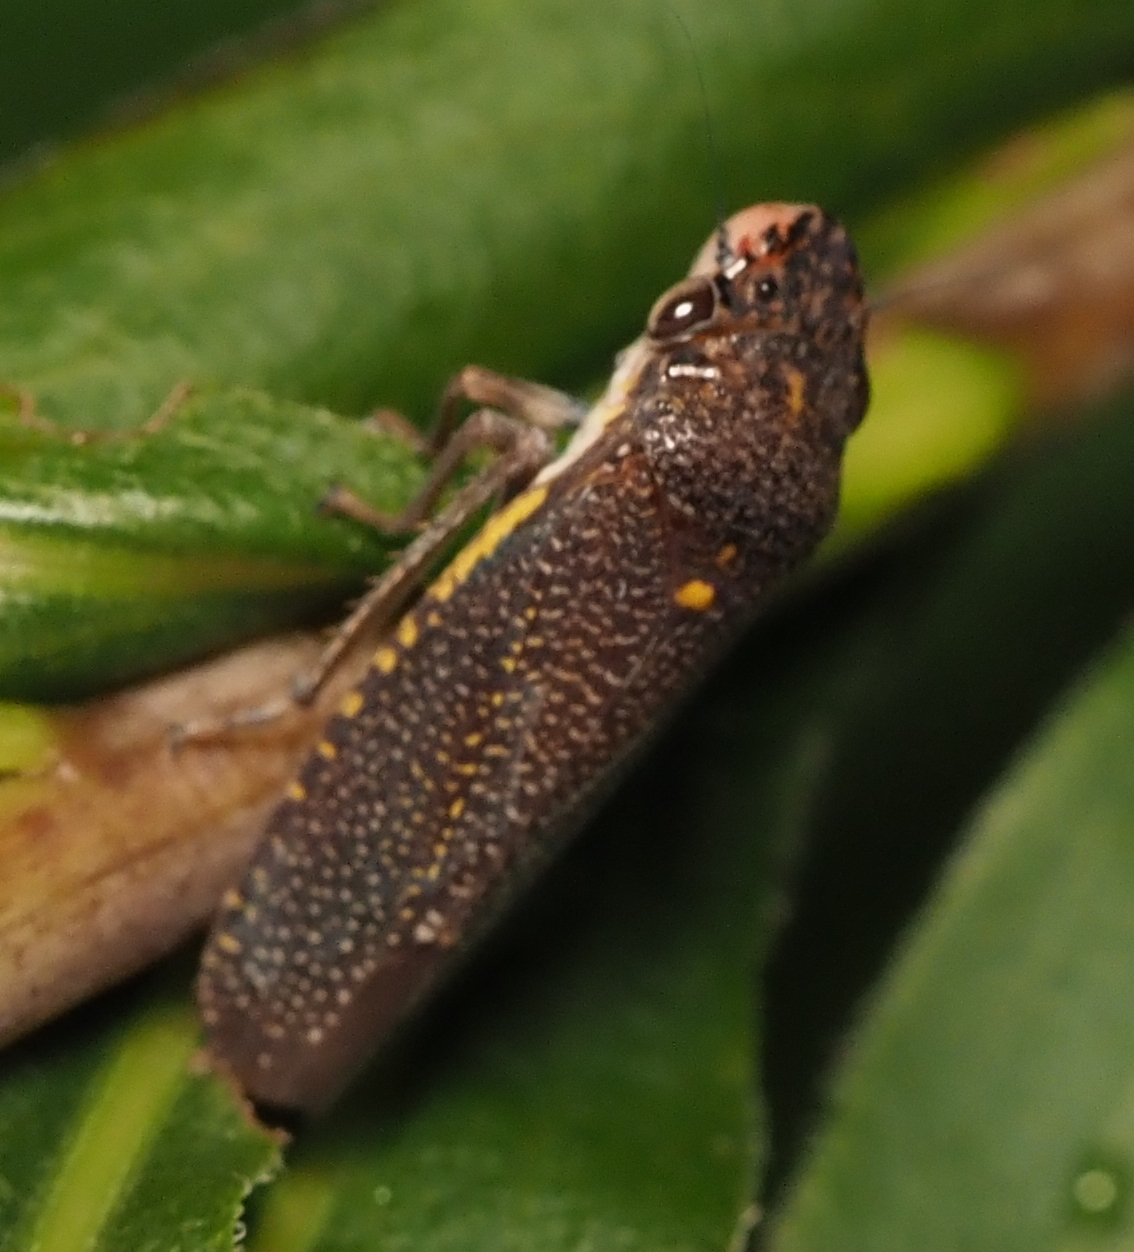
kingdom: Animalia
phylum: Arthropoda
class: Insecta
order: Hemiptera
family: Cicadellidae
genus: Paraulacizes
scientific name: Paraulacizes irrorata
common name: Speckled sharpshooter
